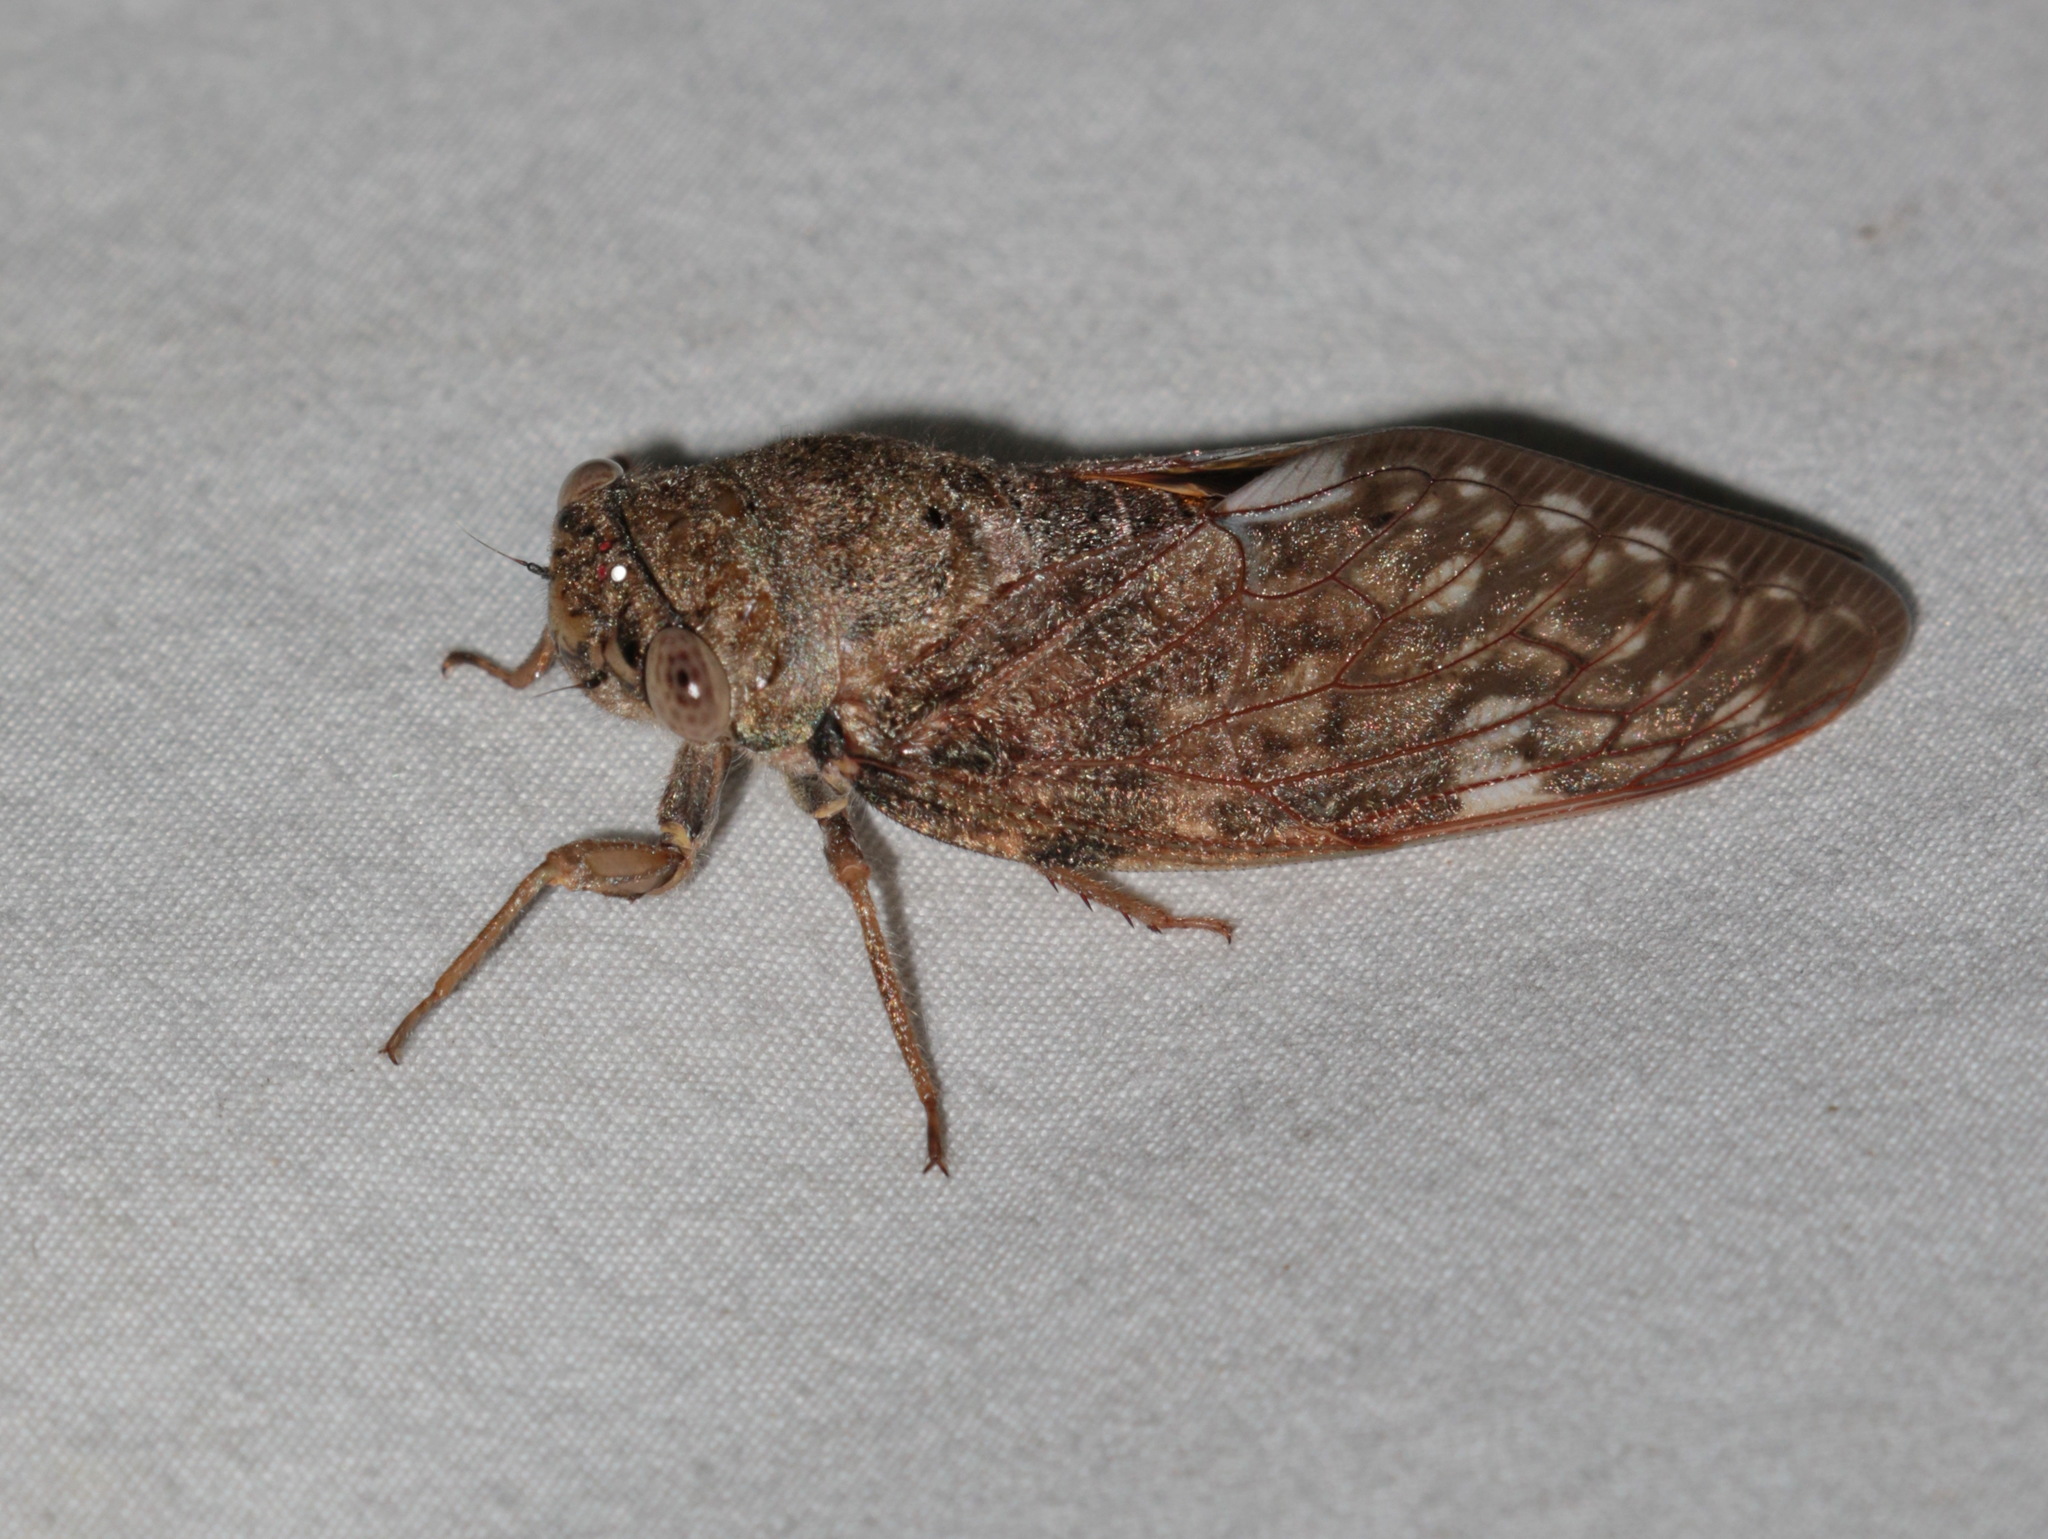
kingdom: Animalia
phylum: Arthropoda
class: Insecta
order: Hemiptera
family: Cicadidae
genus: Platypleura
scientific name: Platypleura mira
